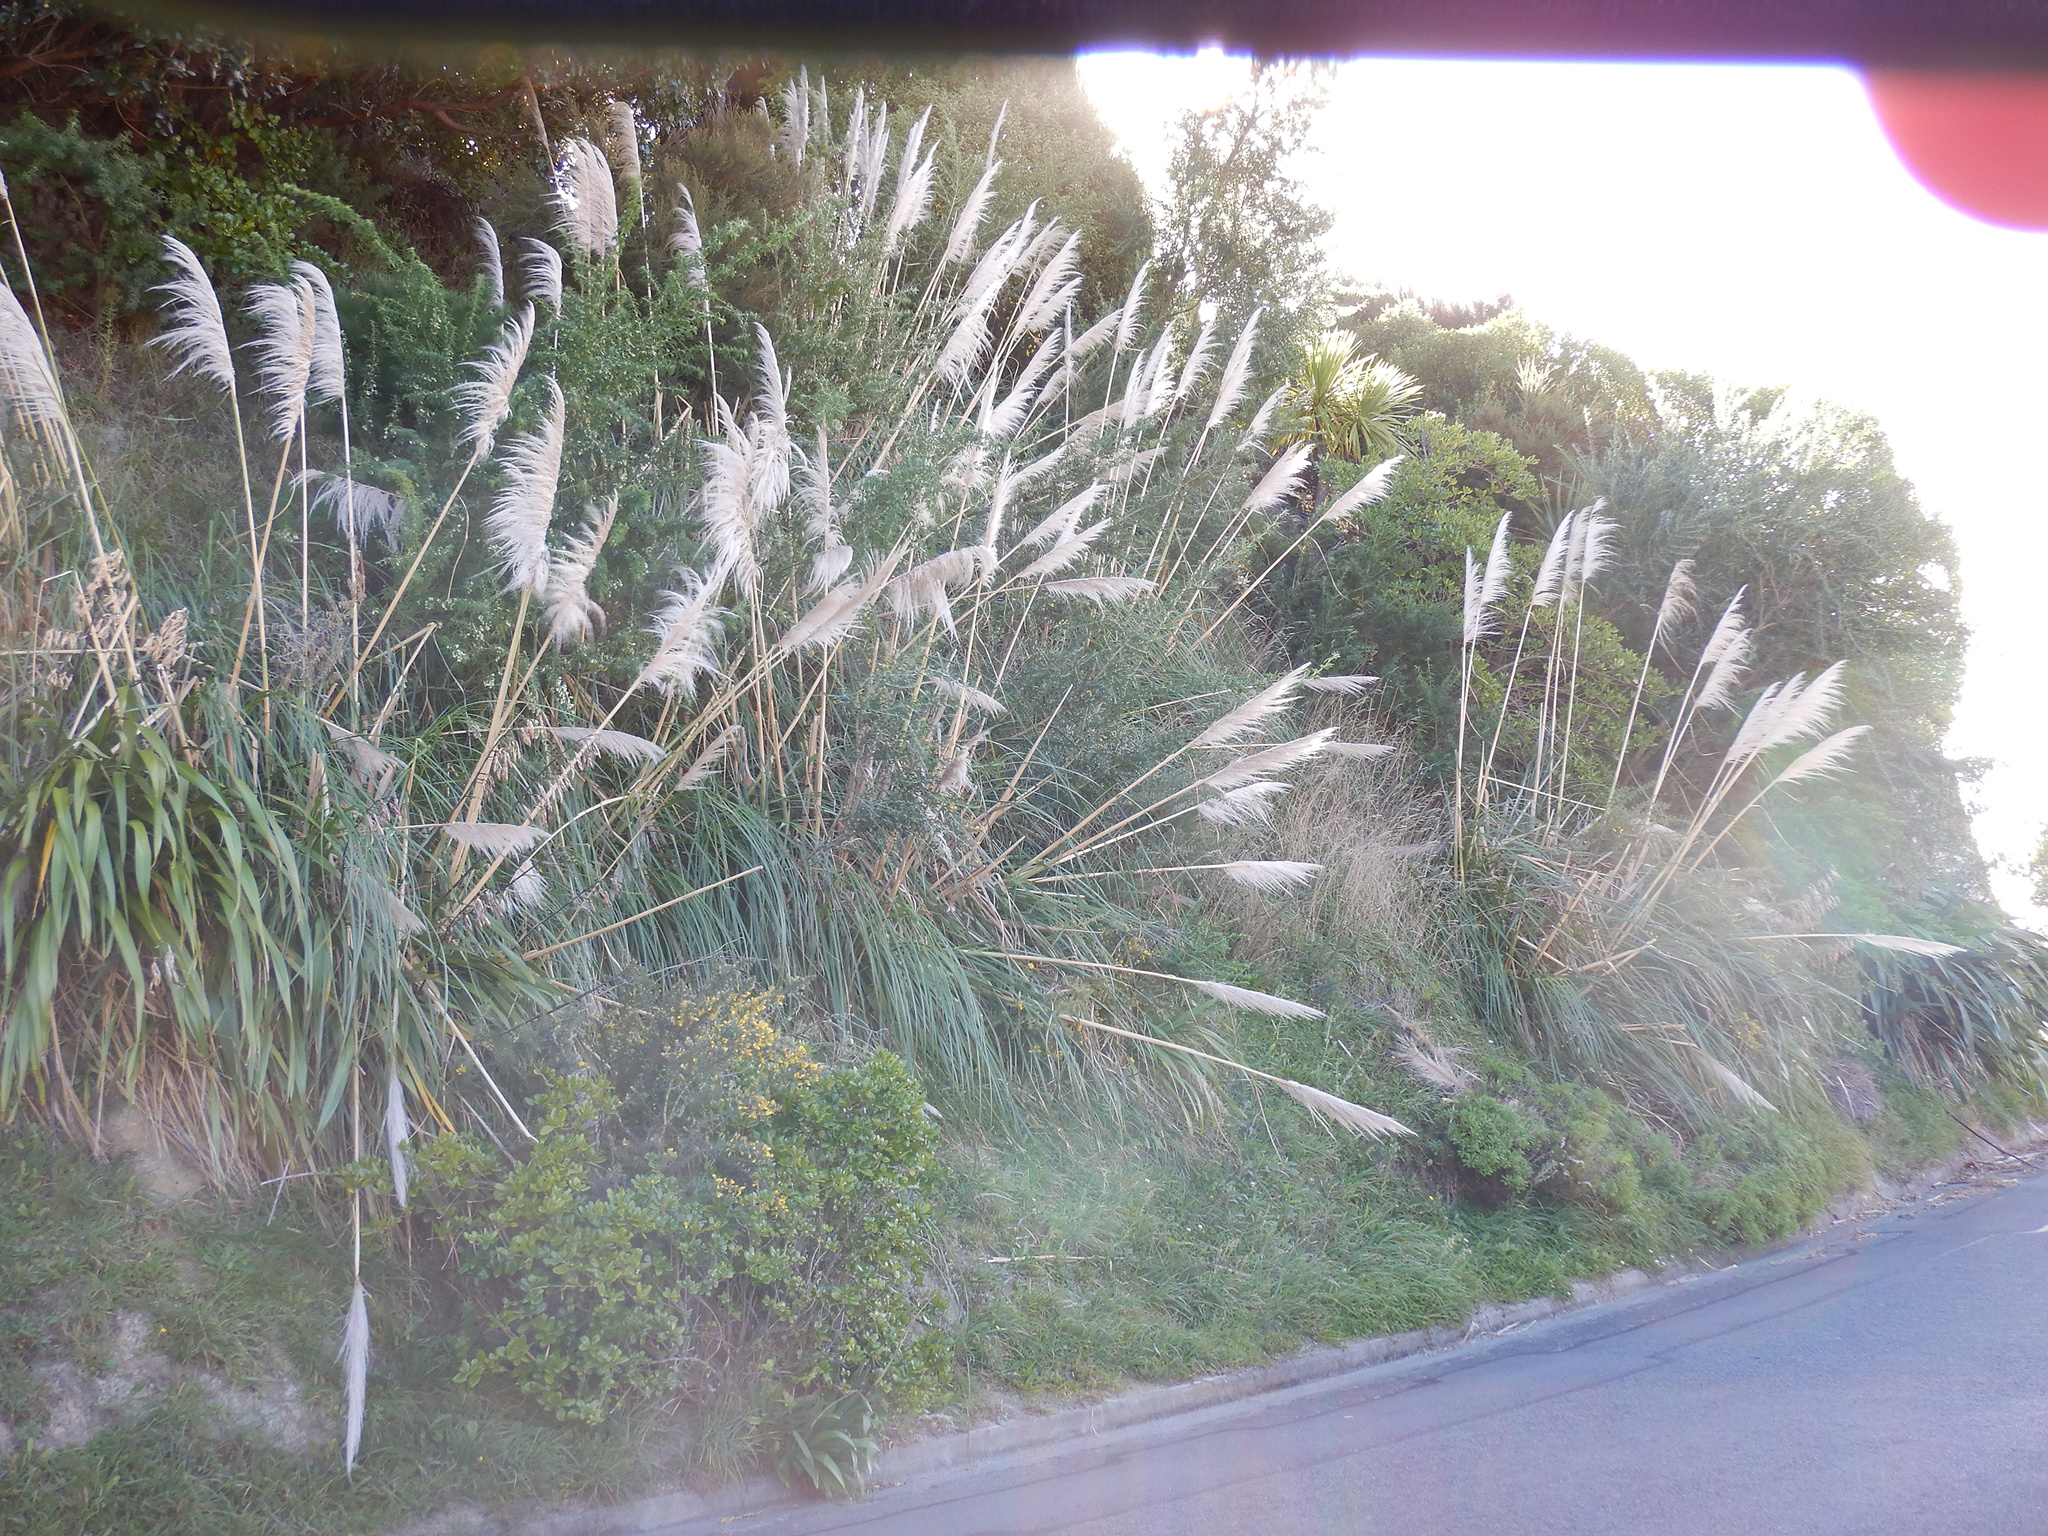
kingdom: Plantae
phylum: Tracheophyta
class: Liliopsida
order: Poales
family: Poaceae
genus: Cortaderia
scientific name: Cortaderia selloana
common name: Uruguayan pampas grass
